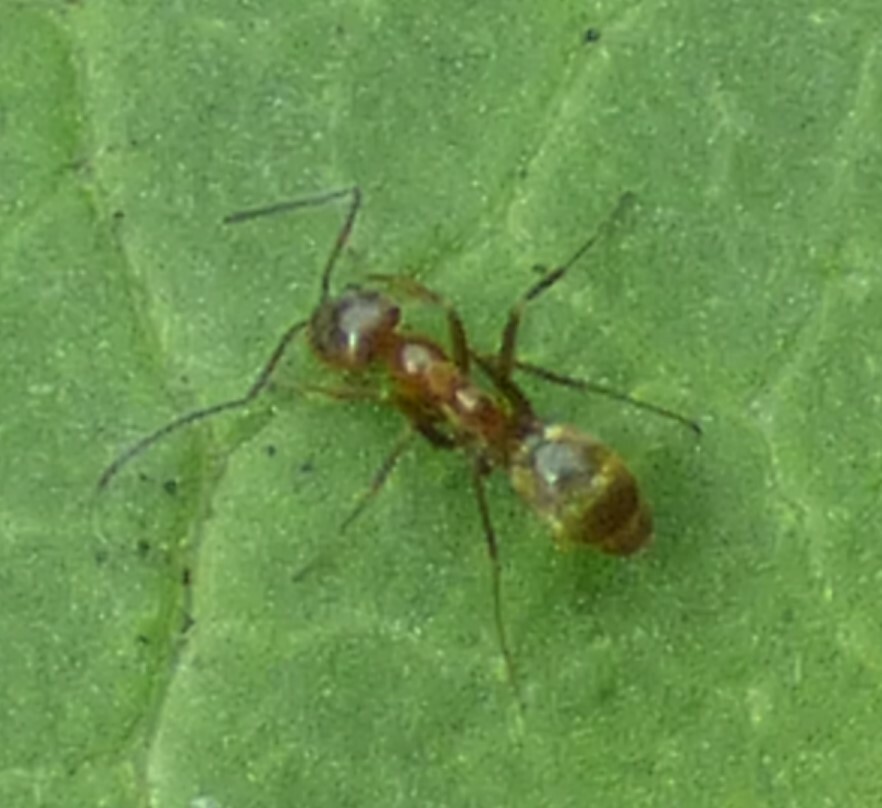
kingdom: Animalia
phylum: Arthropoda
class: Insecta
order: Hymenoptera
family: Formicidae
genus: Dorymyrmex
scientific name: Dorymyrmex bureni
